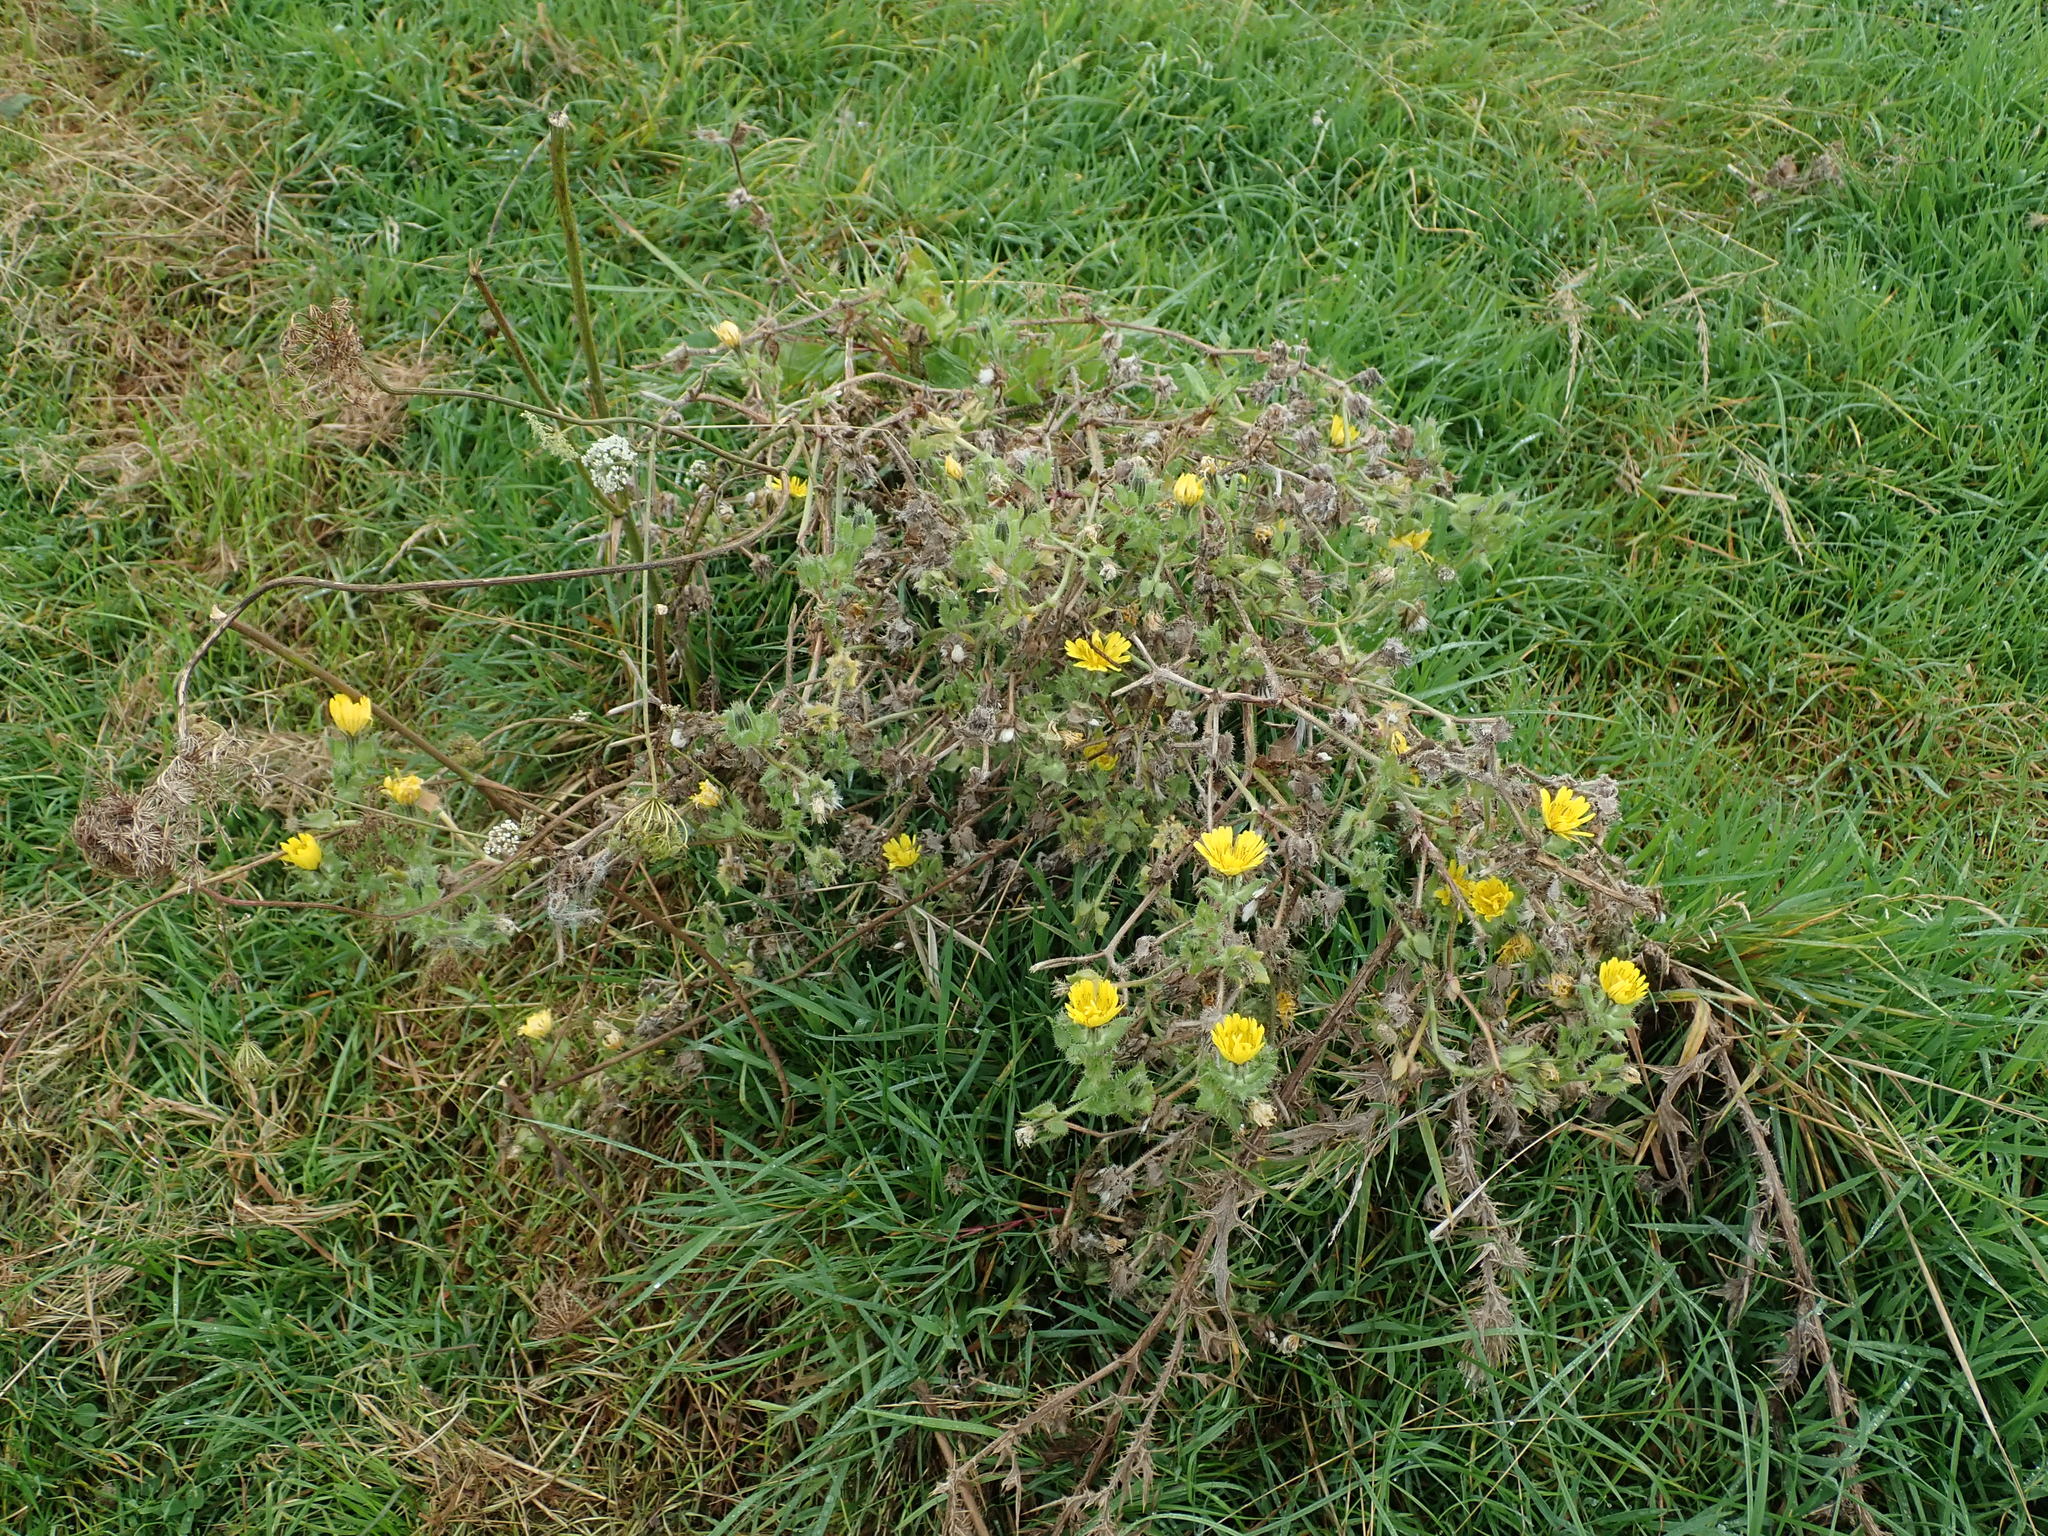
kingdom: Plantae
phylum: Tracheophyta
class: Magnoliopsida
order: Asterales
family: Asteraceae
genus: Helminthotheca
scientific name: Helminthotheca echioides
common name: Ox-tongue
